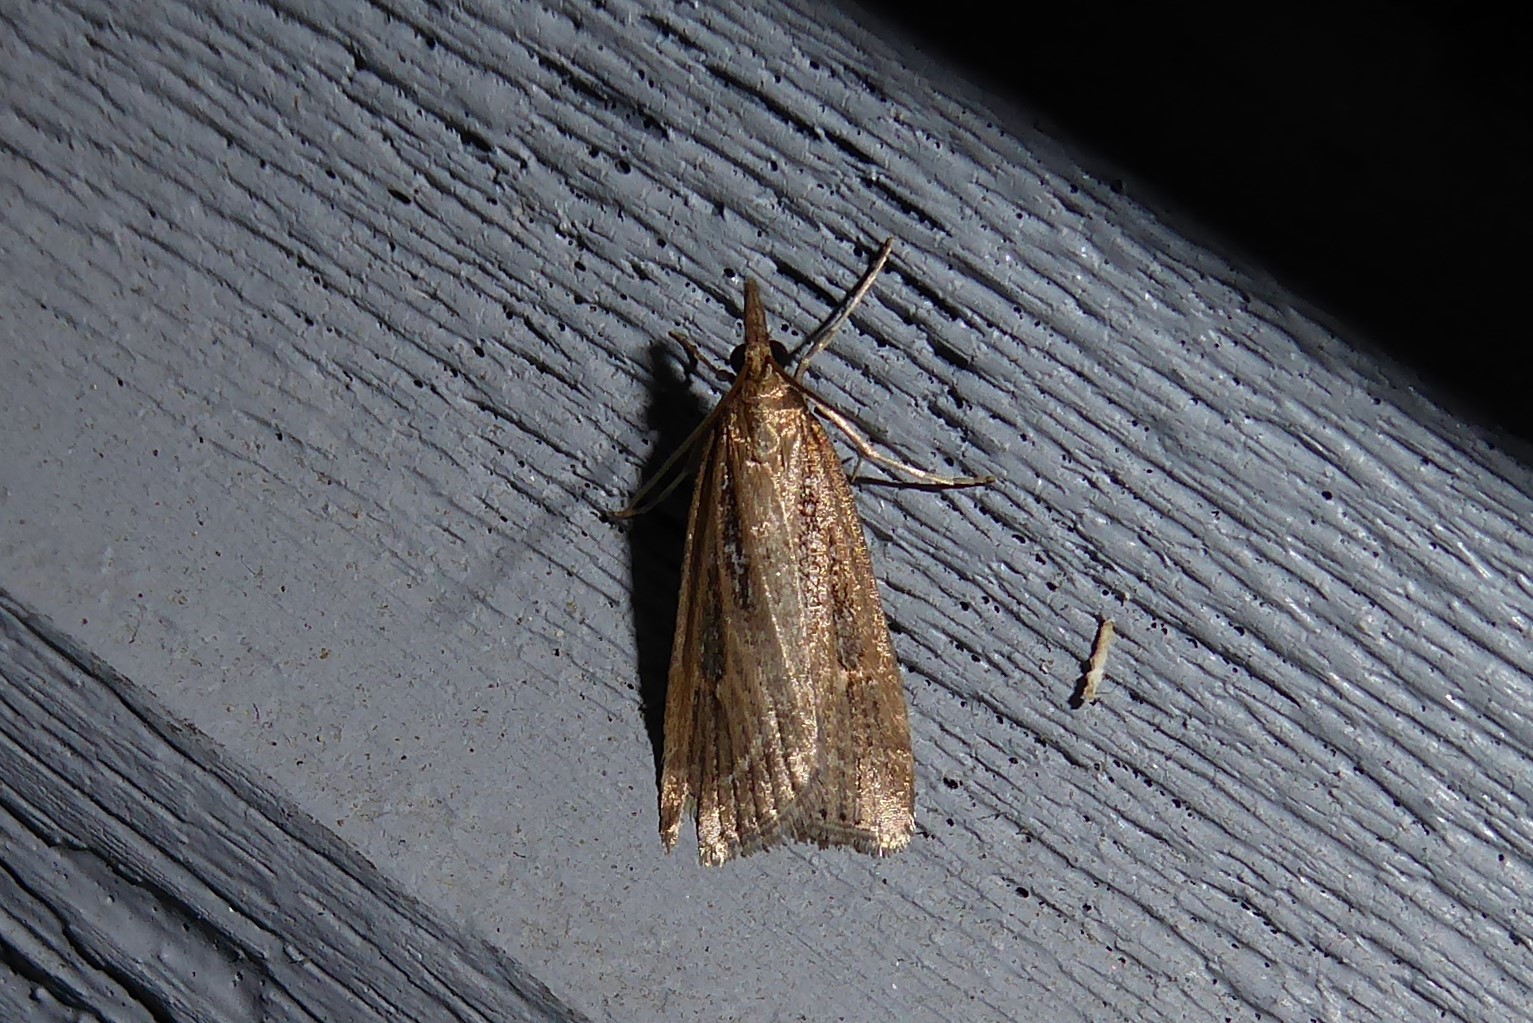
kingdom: Animalia
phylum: Arthropoda
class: Insecta
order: Lepidoptera
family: Crambidae
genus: Eudonia
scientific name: Eudonia octophora
